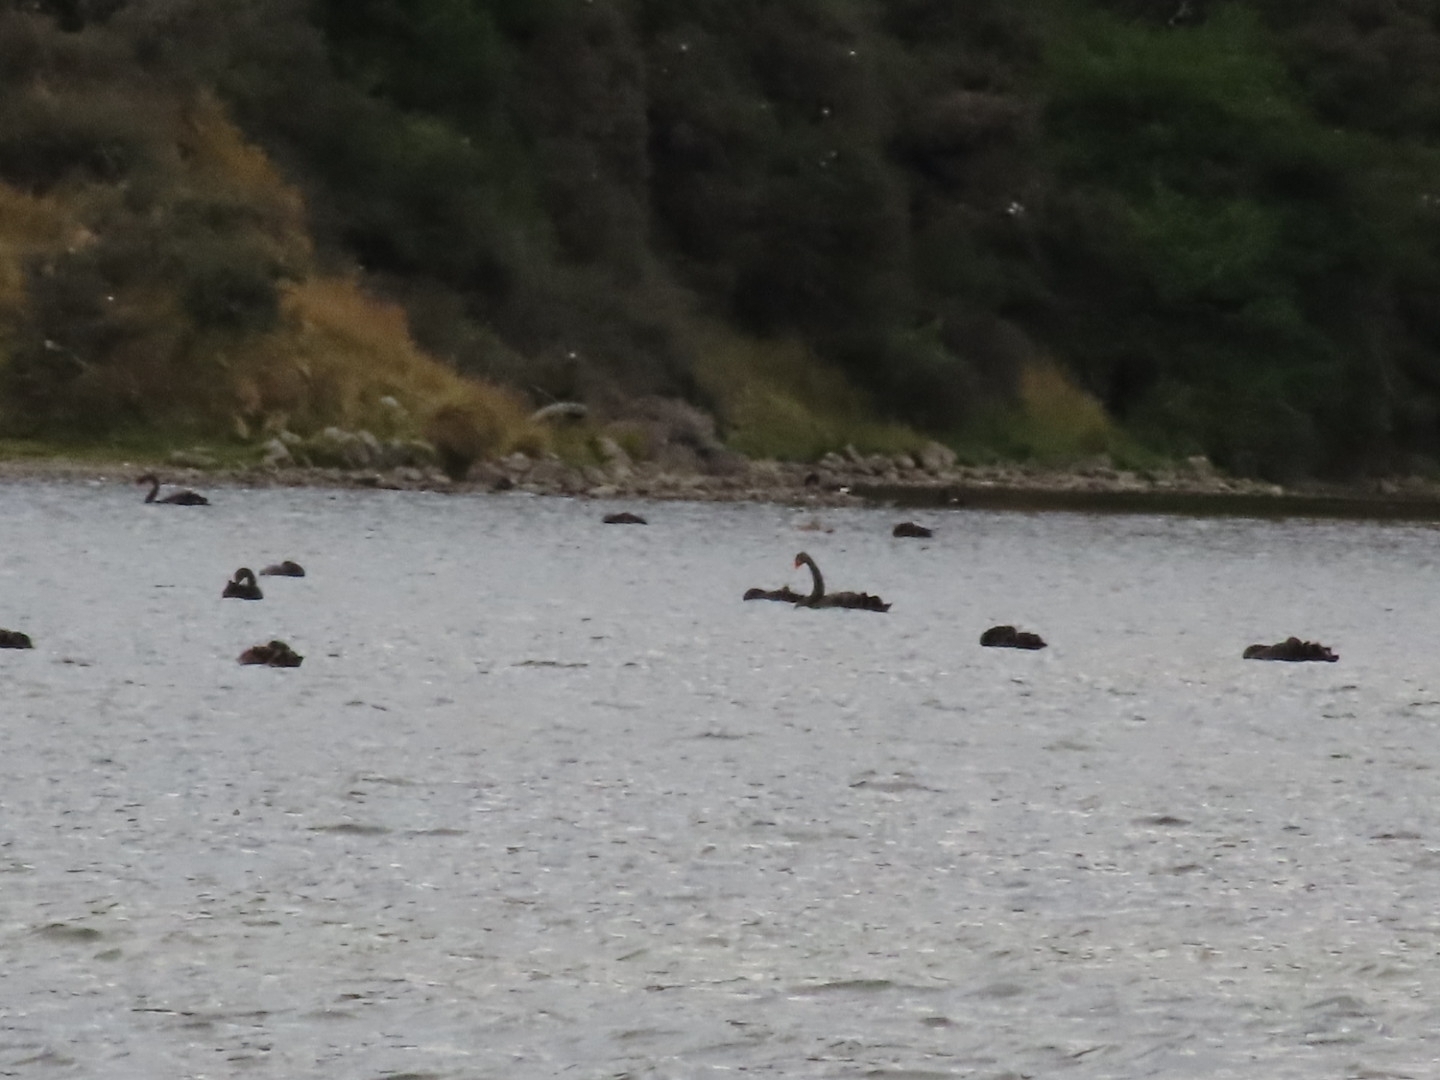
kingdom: Animalia
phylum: Chordata
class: Aves
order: Anseriformes
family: Anatidae
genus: Cygnus
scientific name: Cygnus atratus
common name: Black swan
